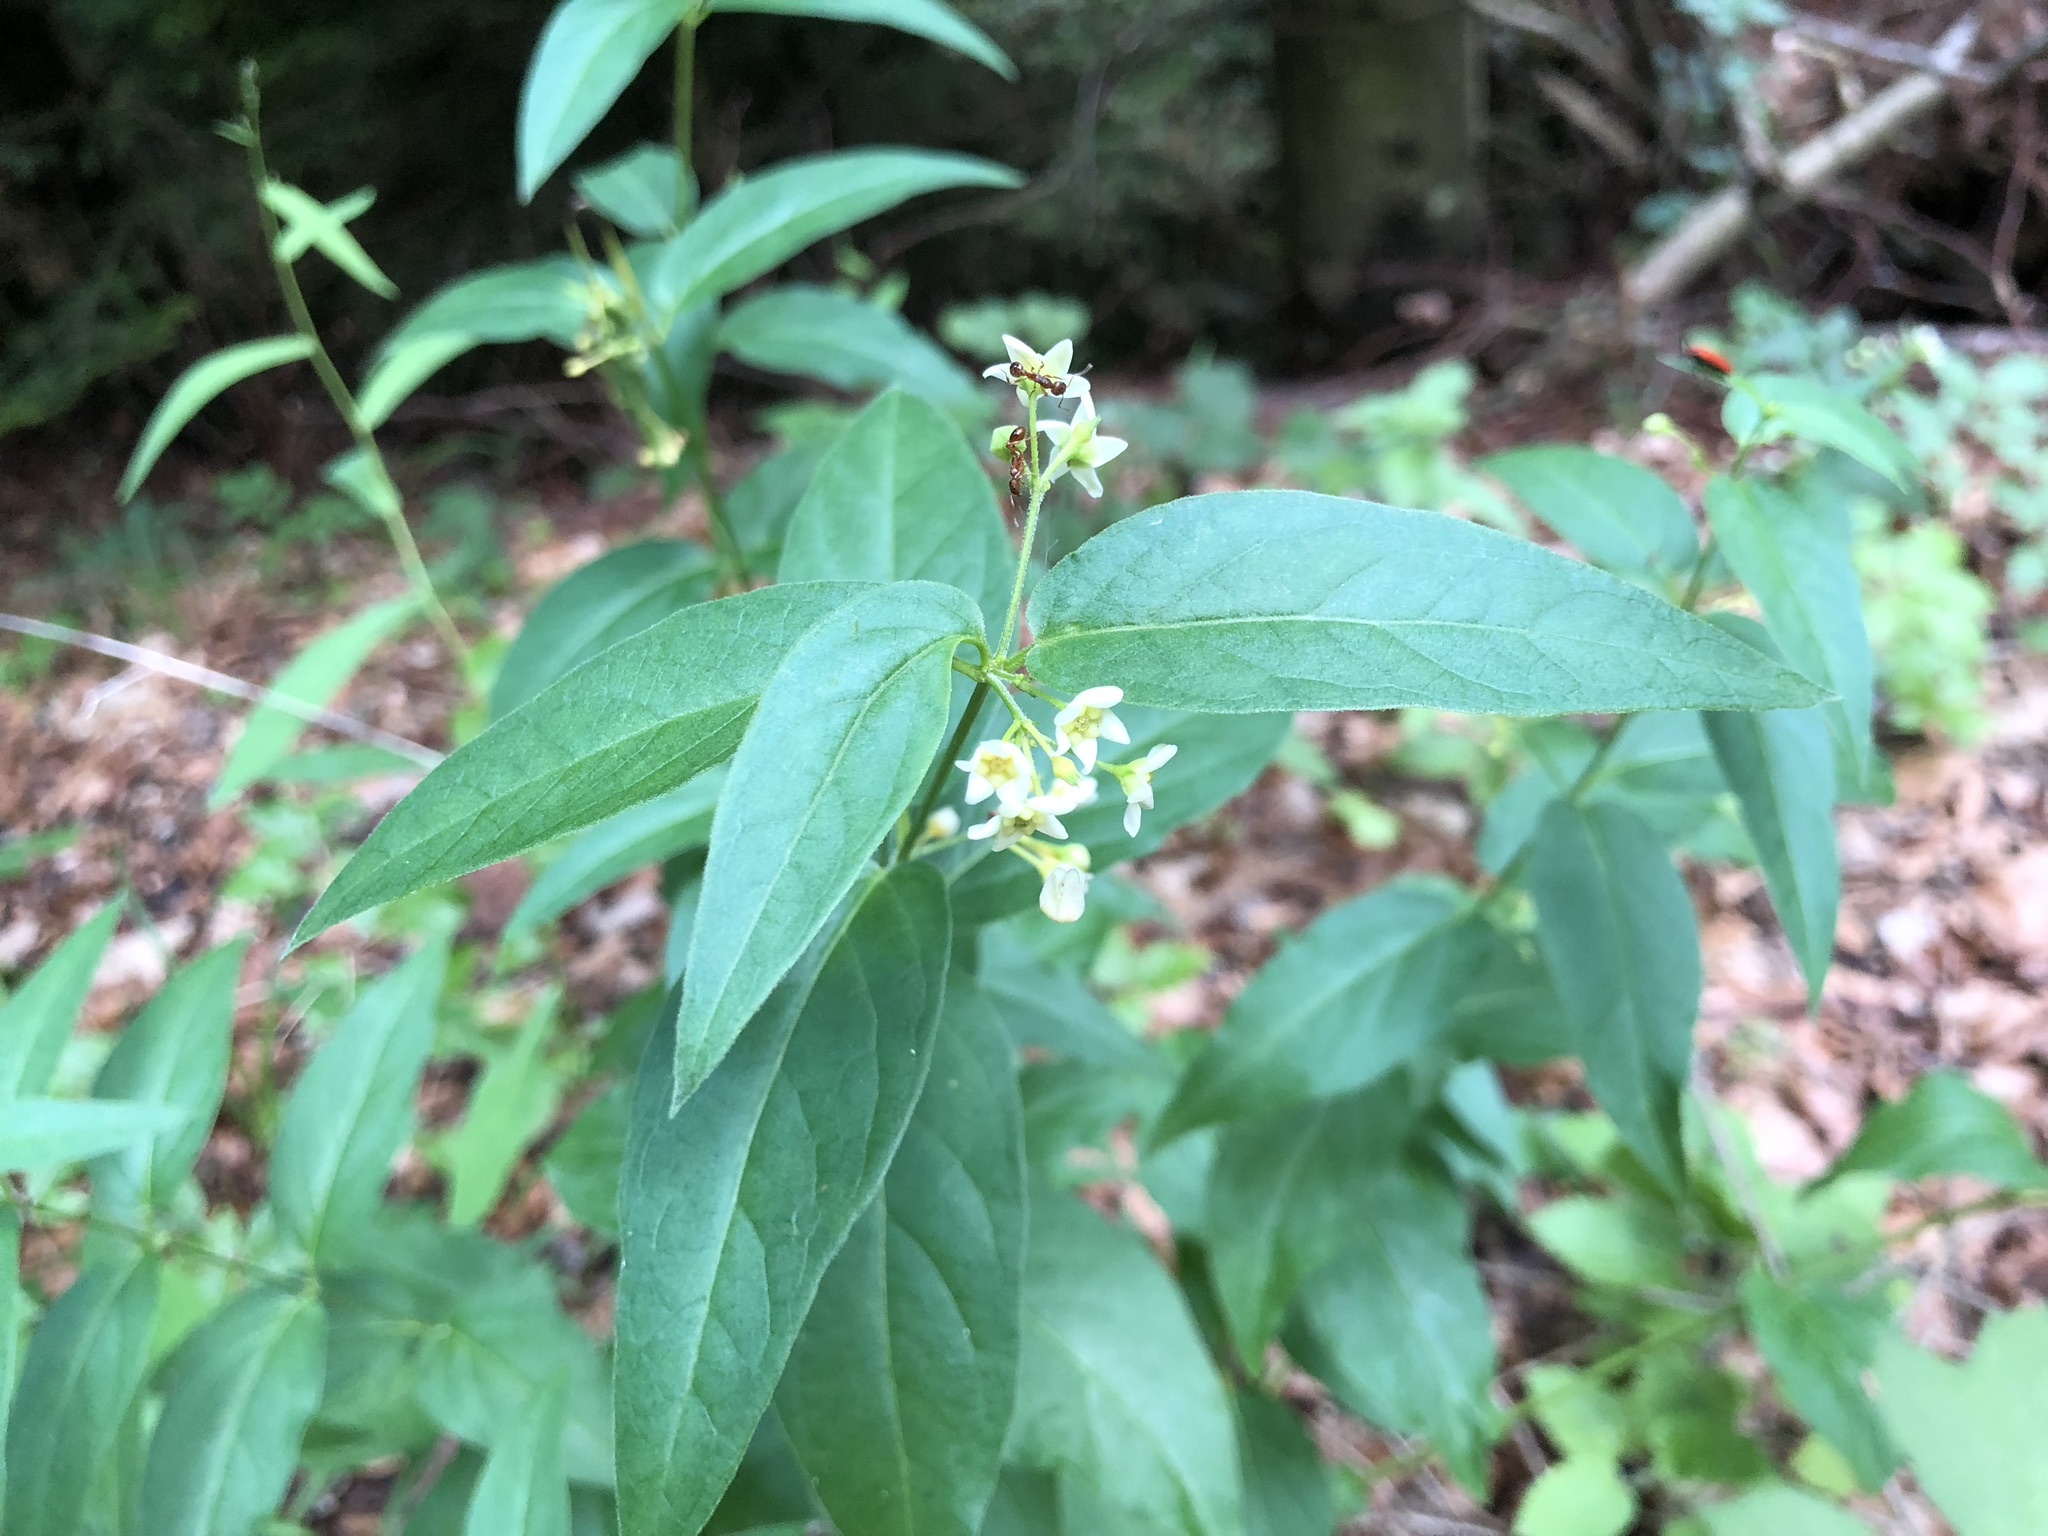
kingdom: Plantae
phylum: Tracheophyta
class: Magnoliopsida
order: Gentianales
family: Apocynaceae
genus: Vincetoxicum
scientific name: Vincetoxicum hirundinaria
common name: White swallowwort
